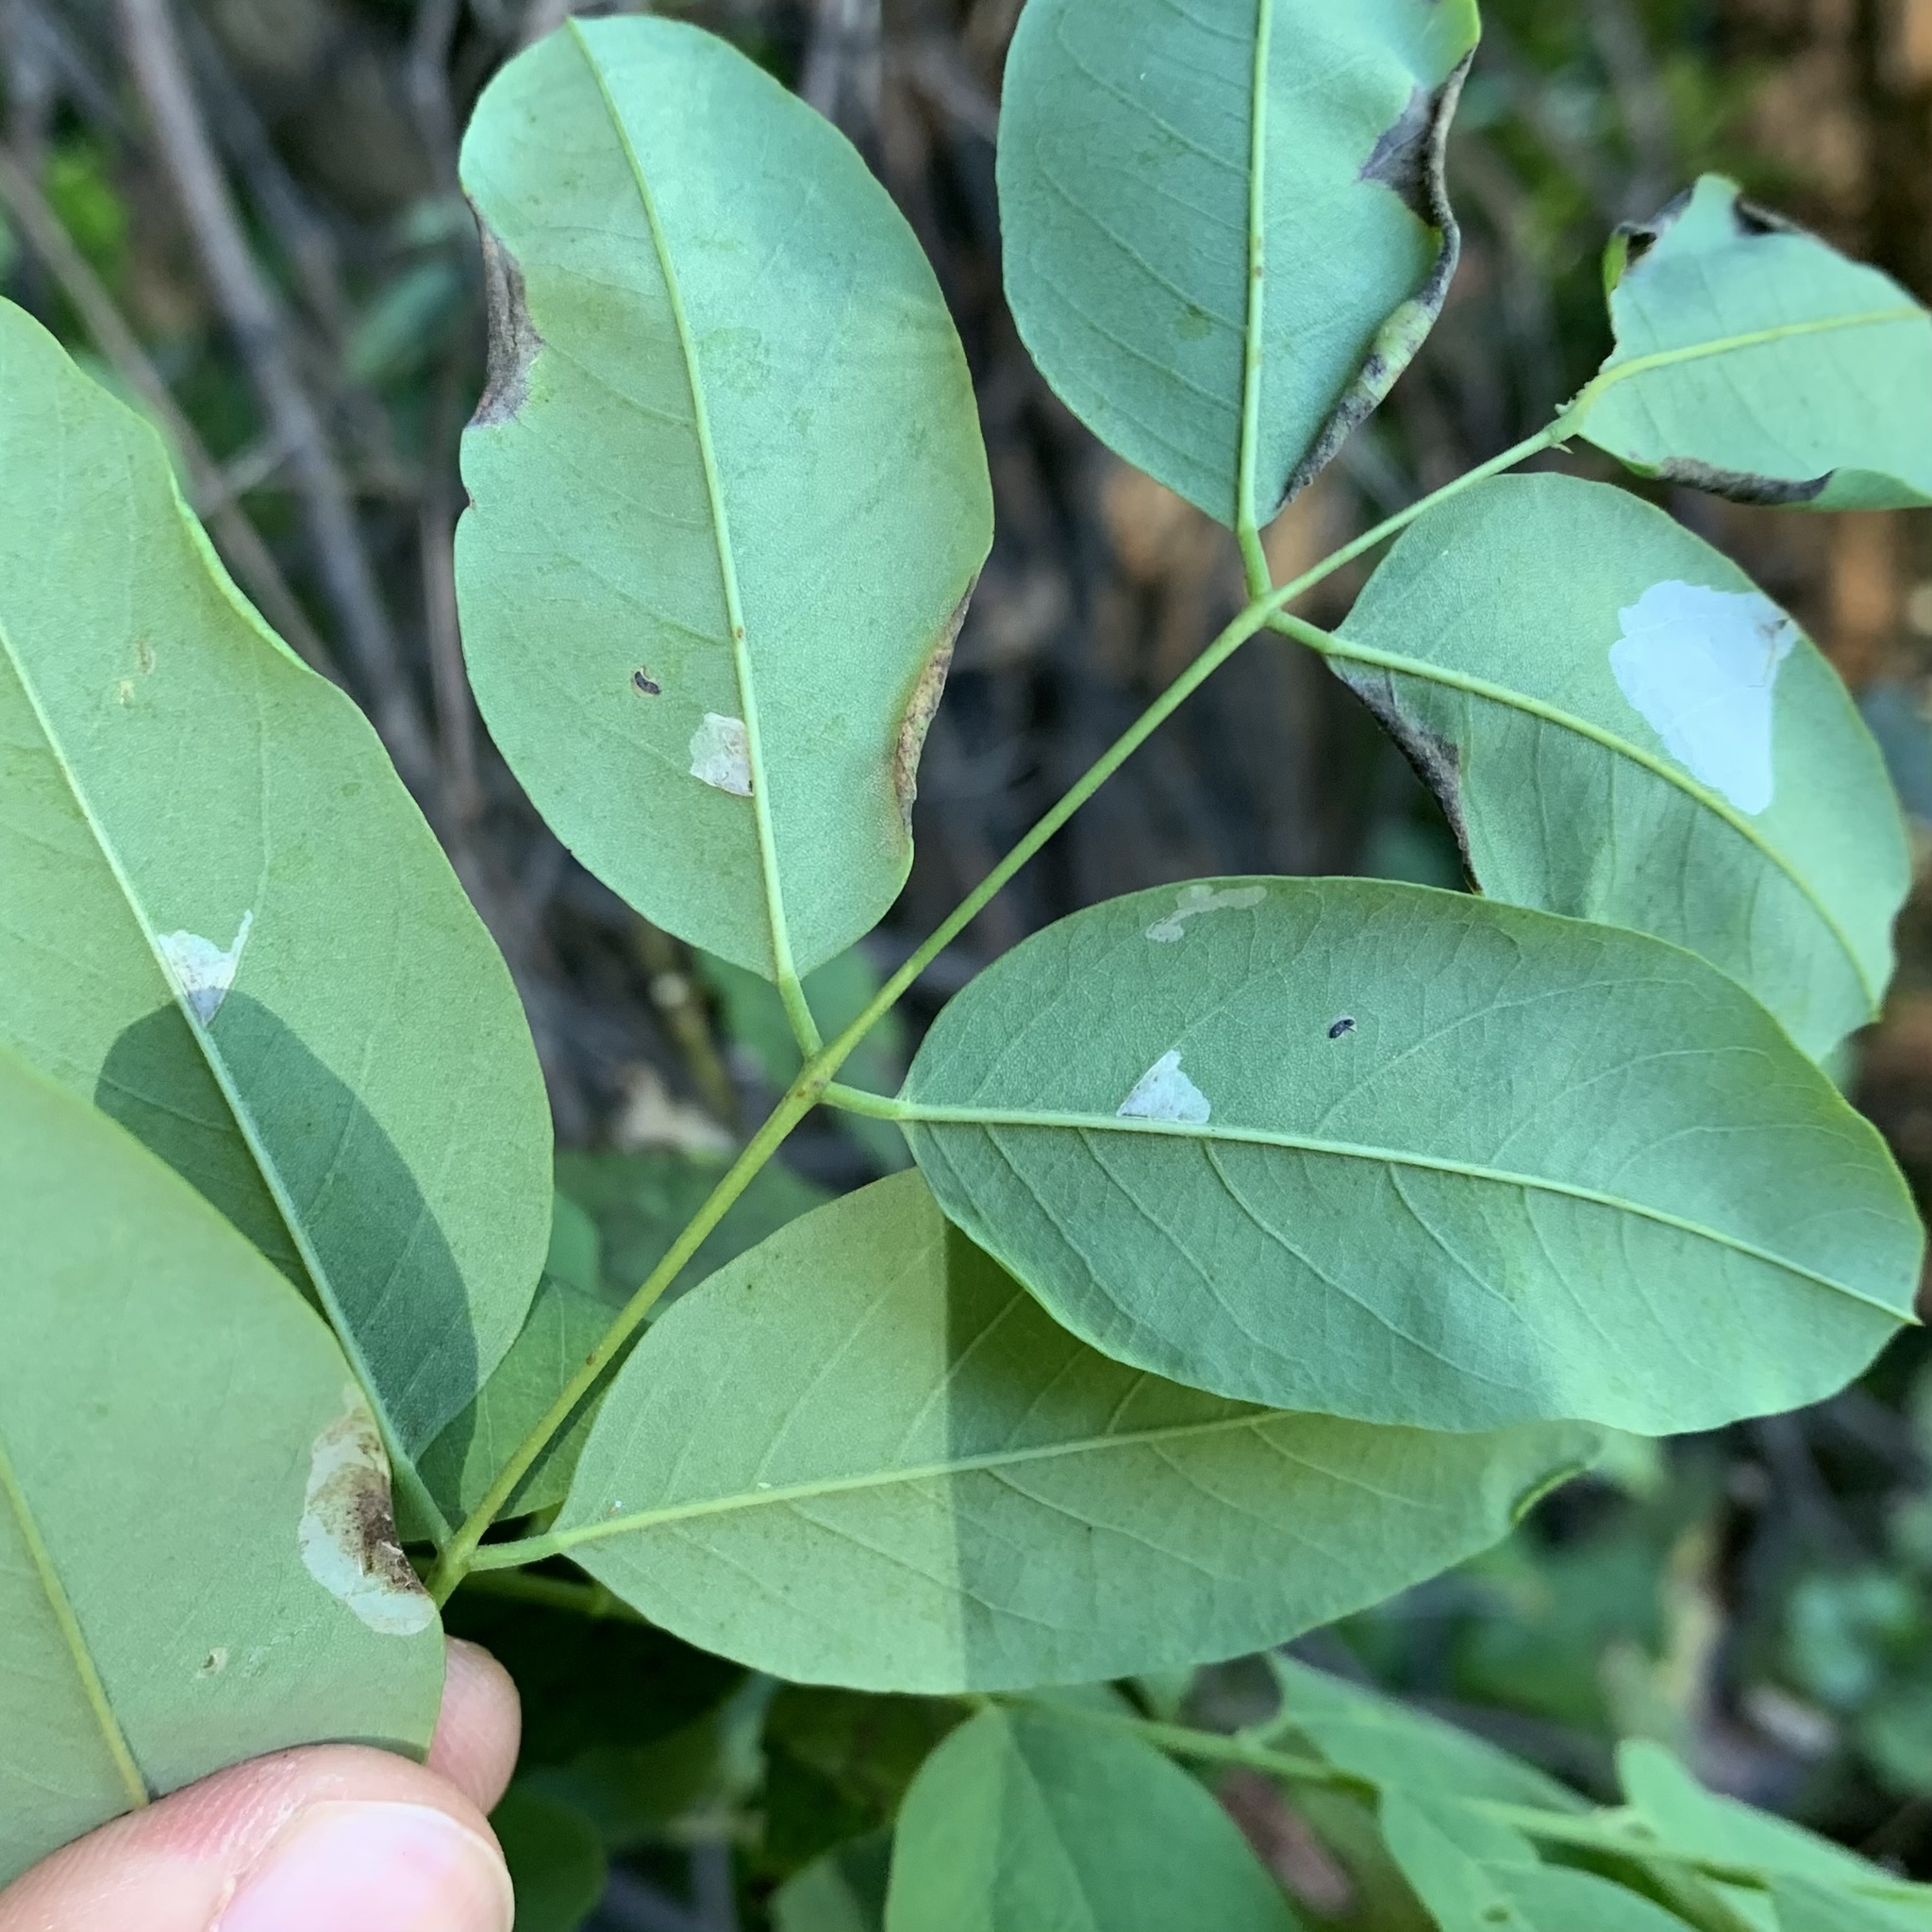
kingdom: Animalia
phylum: Arthropoda
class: Insecta
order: Lepidoptera
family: Gracillariidae
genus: Parectopa
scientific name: Parectopa robiniella
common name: Locust digitate leafminer
